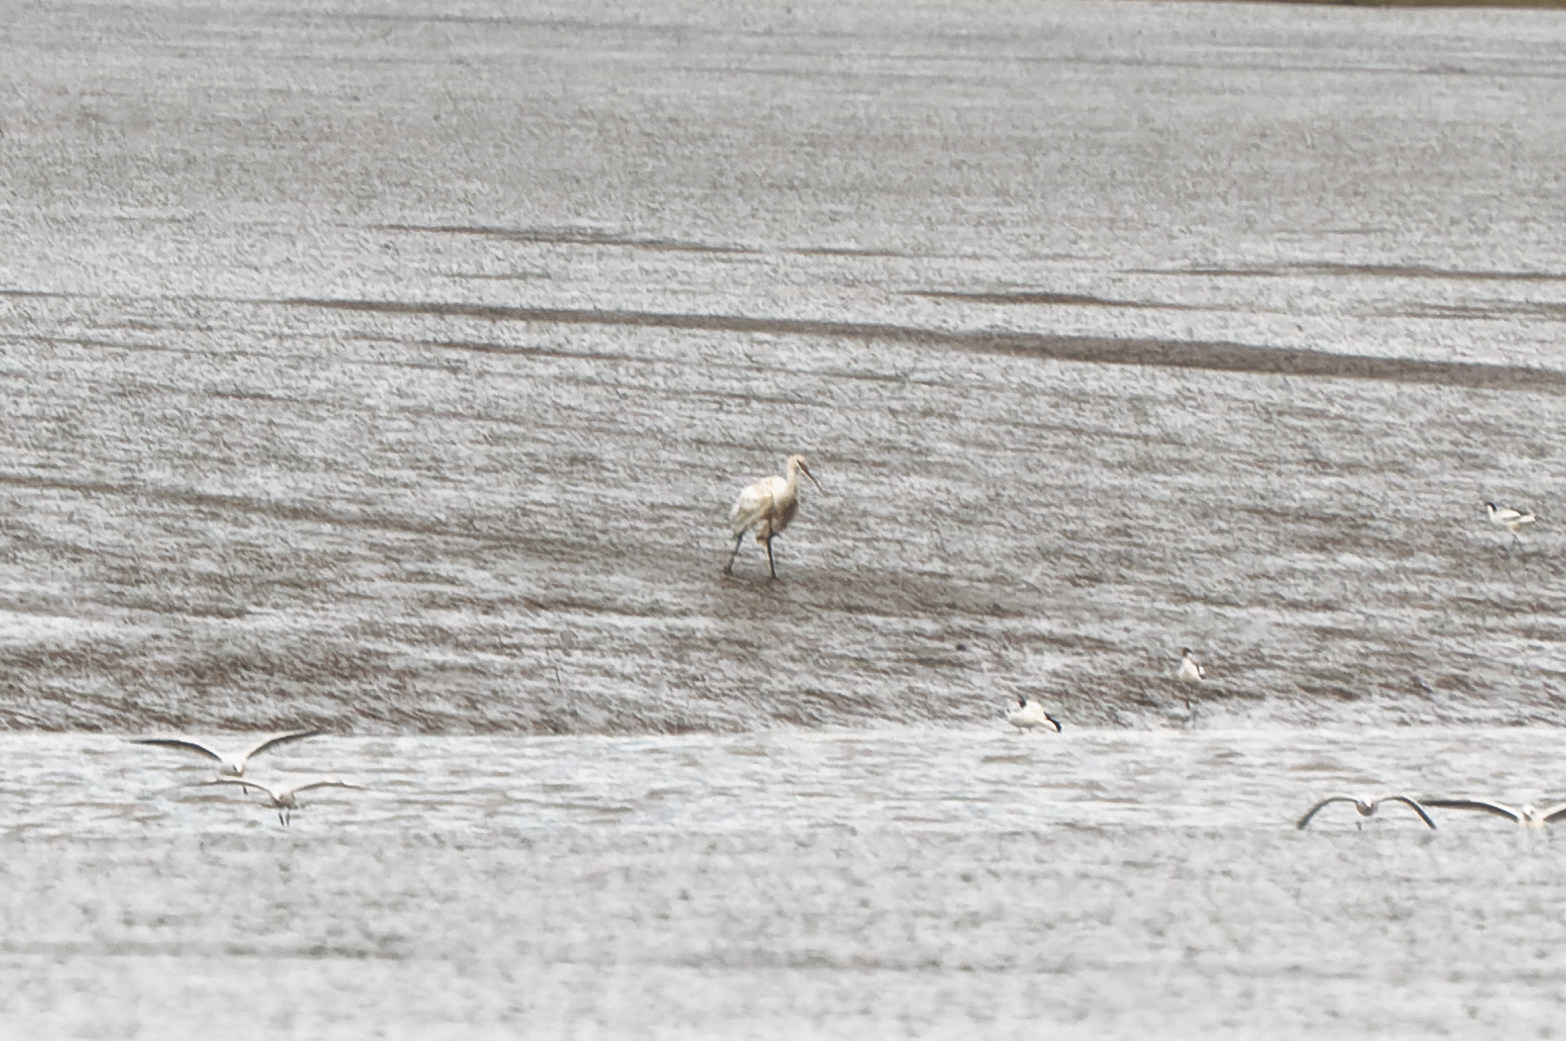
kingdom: Animalia
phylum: Chordata
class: Aves
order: Pelecaniformes
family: Threskiornithidae
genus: Platalea
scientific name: Platalea leucorodia
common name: Eurasian spoonbill
